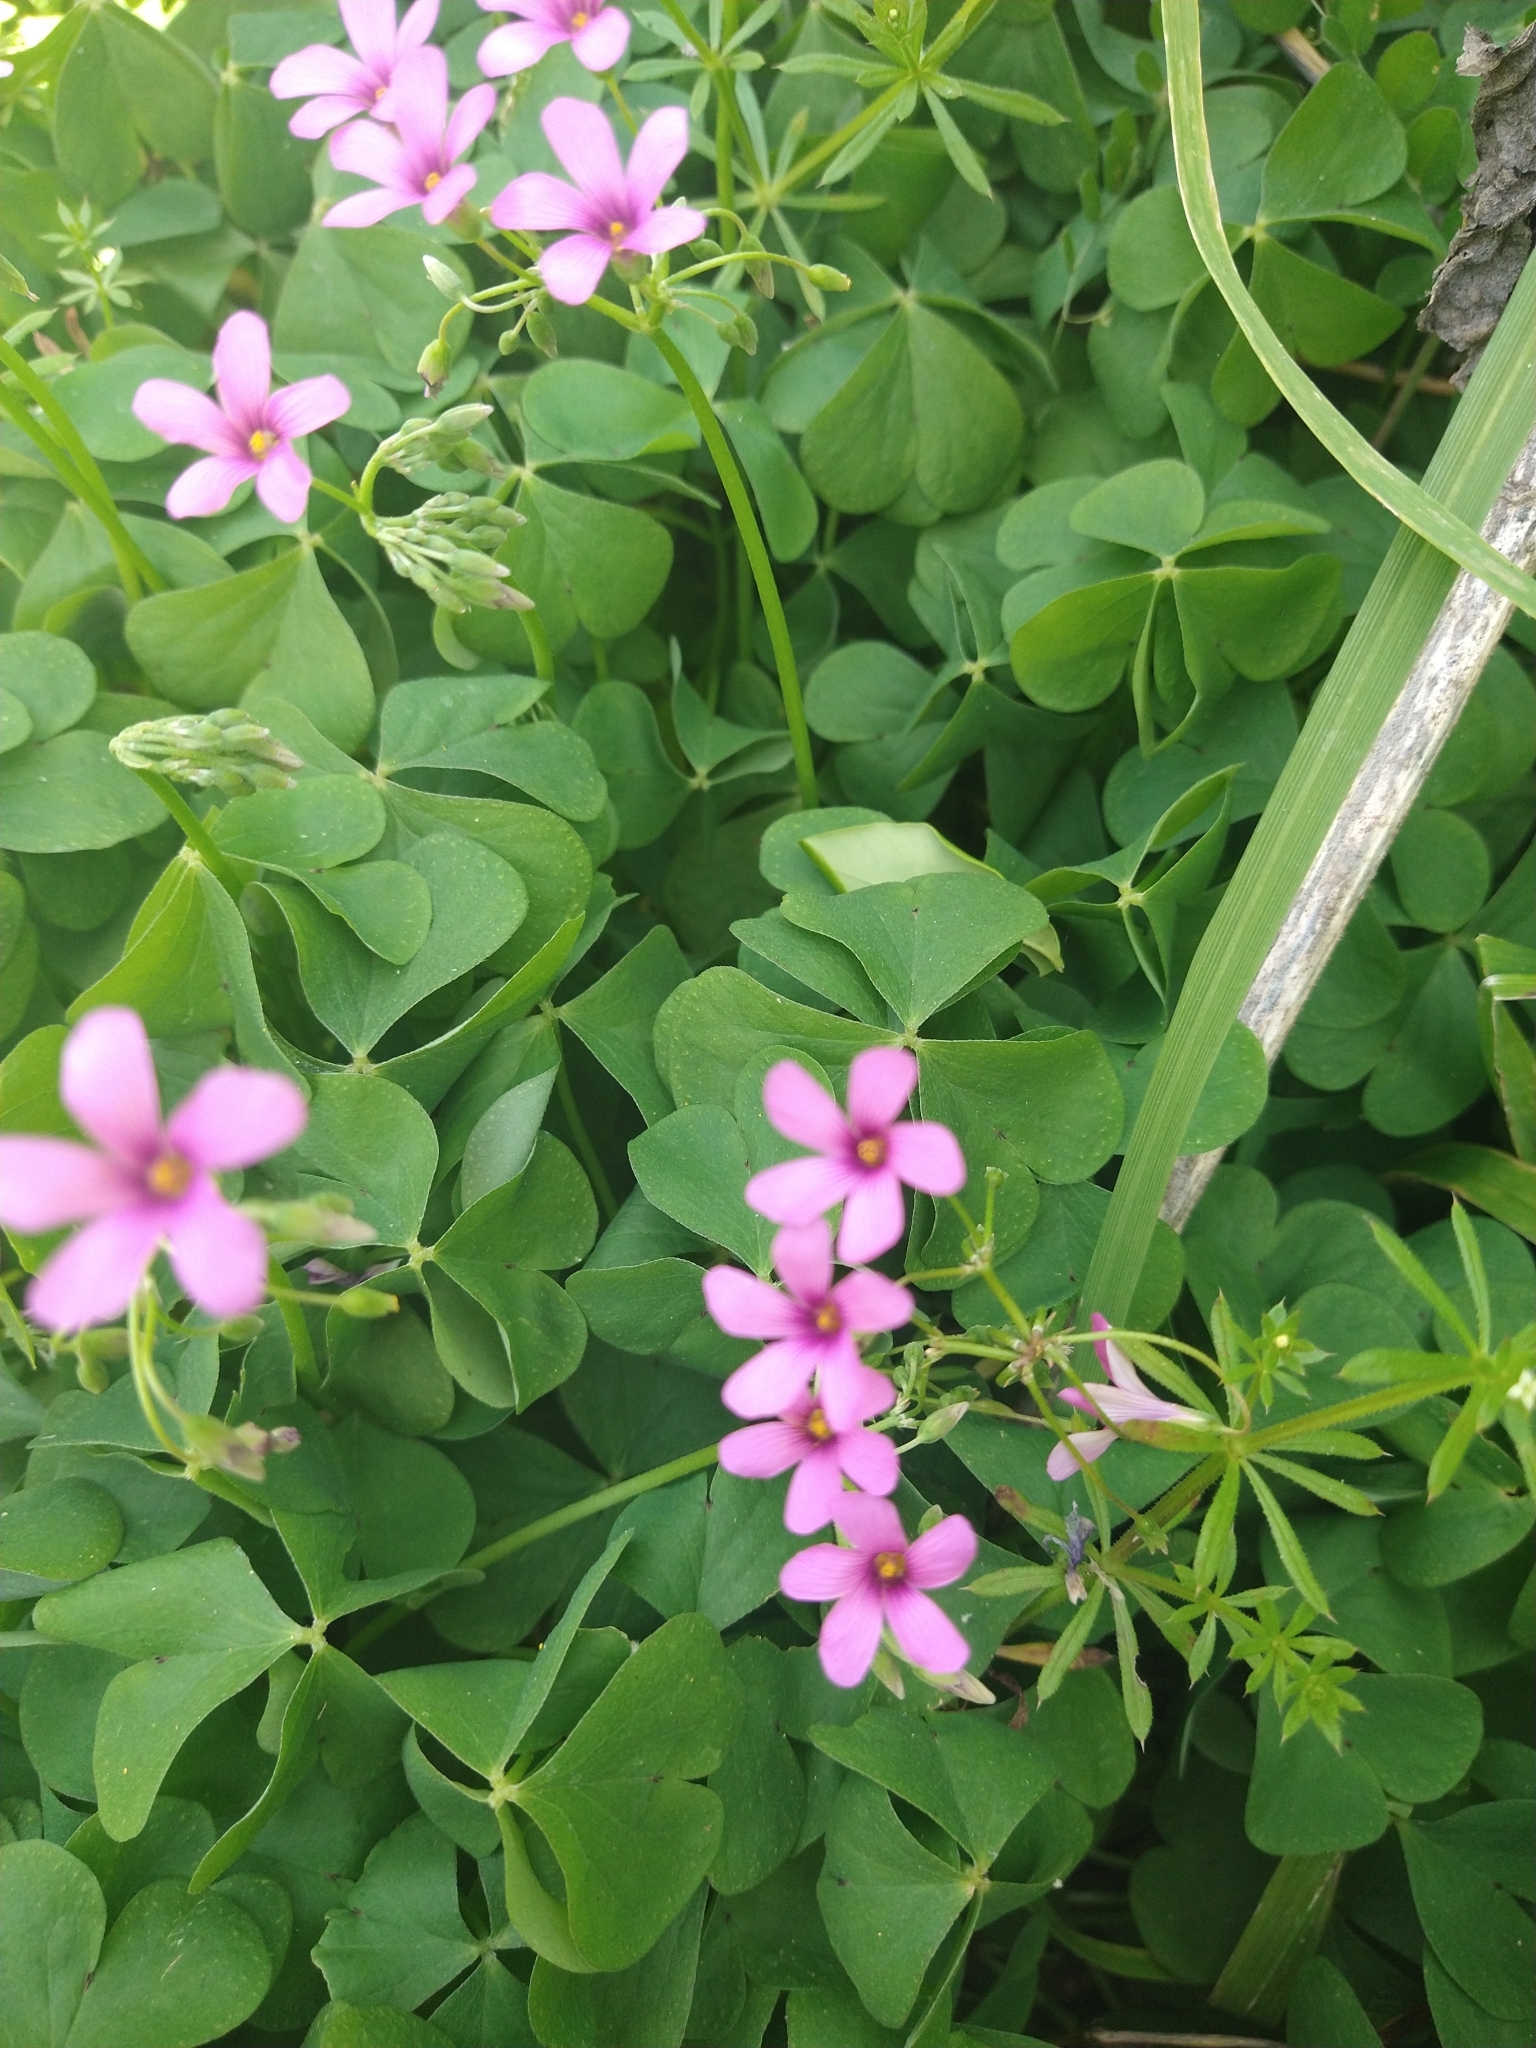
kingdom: Plantae
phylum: Tracheophyta
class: Magnoliopsida
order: Oxalidales
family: Oxalidaceae
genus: Oxalis
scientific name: Oxalis debilis
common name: Large-flowered pink-sorrel
